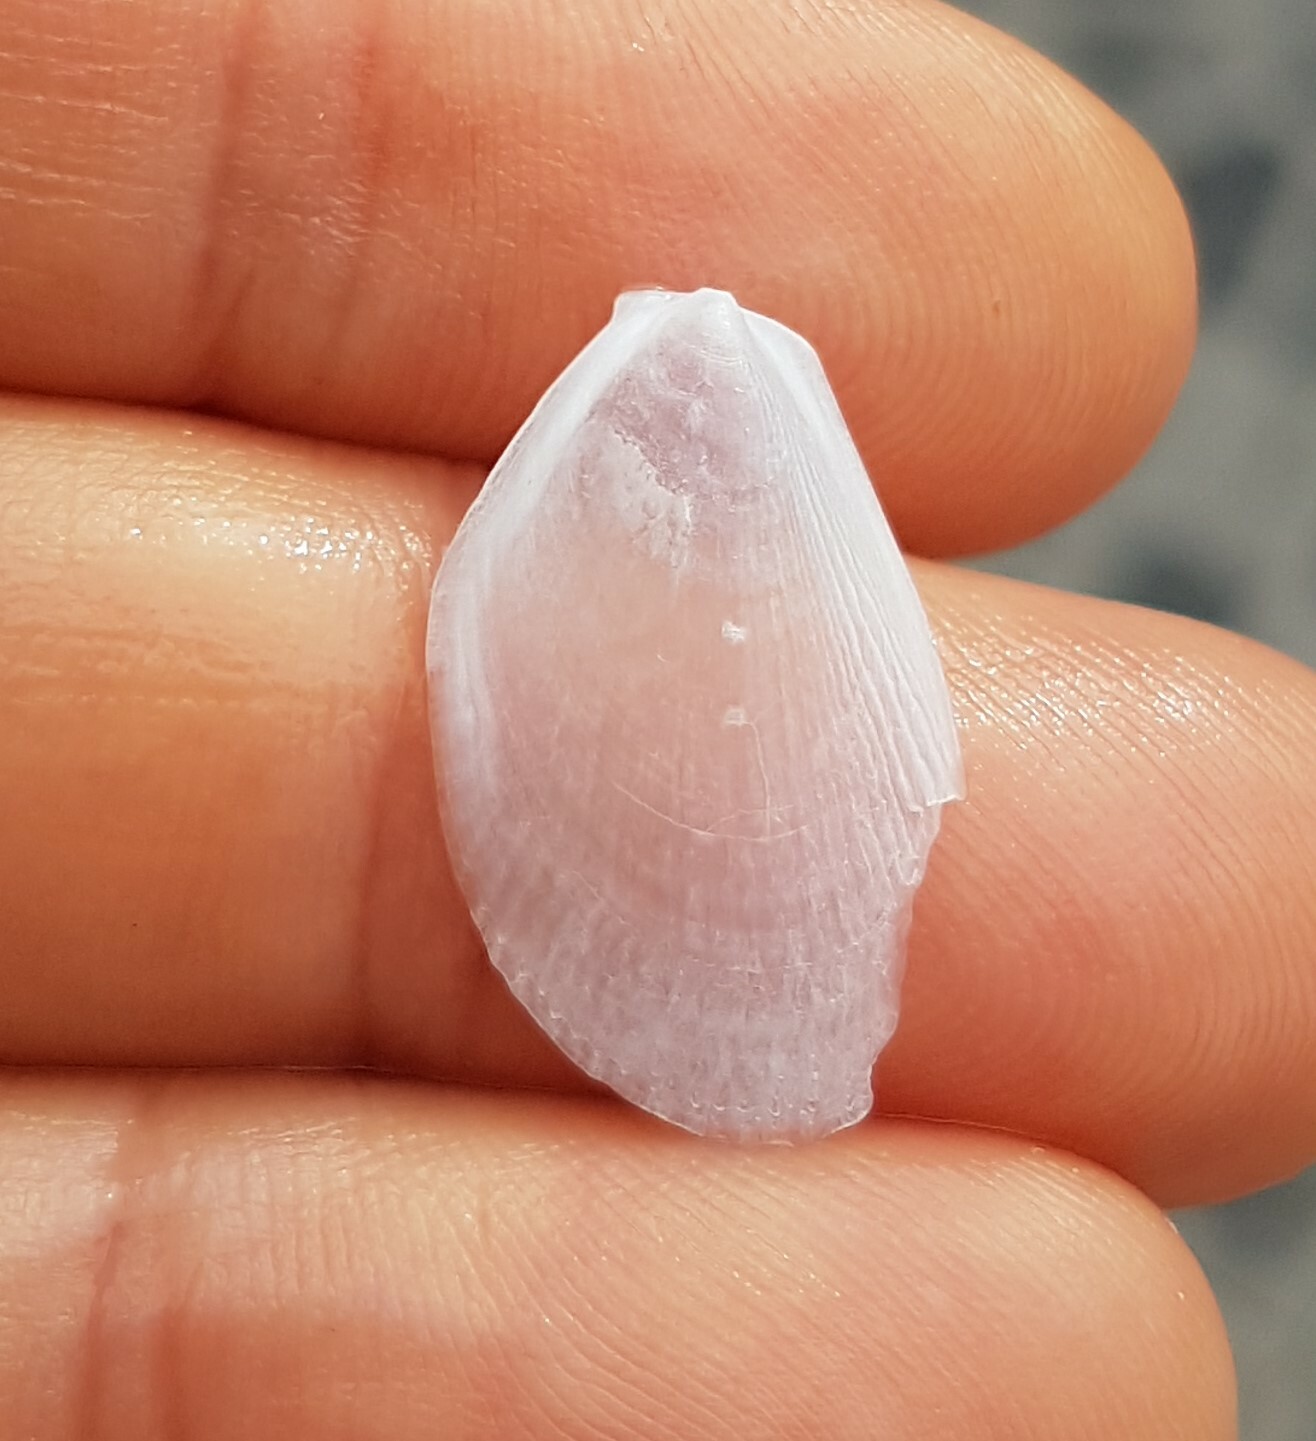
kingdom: Animalia
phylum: Mollusca
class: Bivalvia
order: Limida
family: Limidae
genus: Limaria
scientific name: Limaria hians
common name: Gaping file shale
